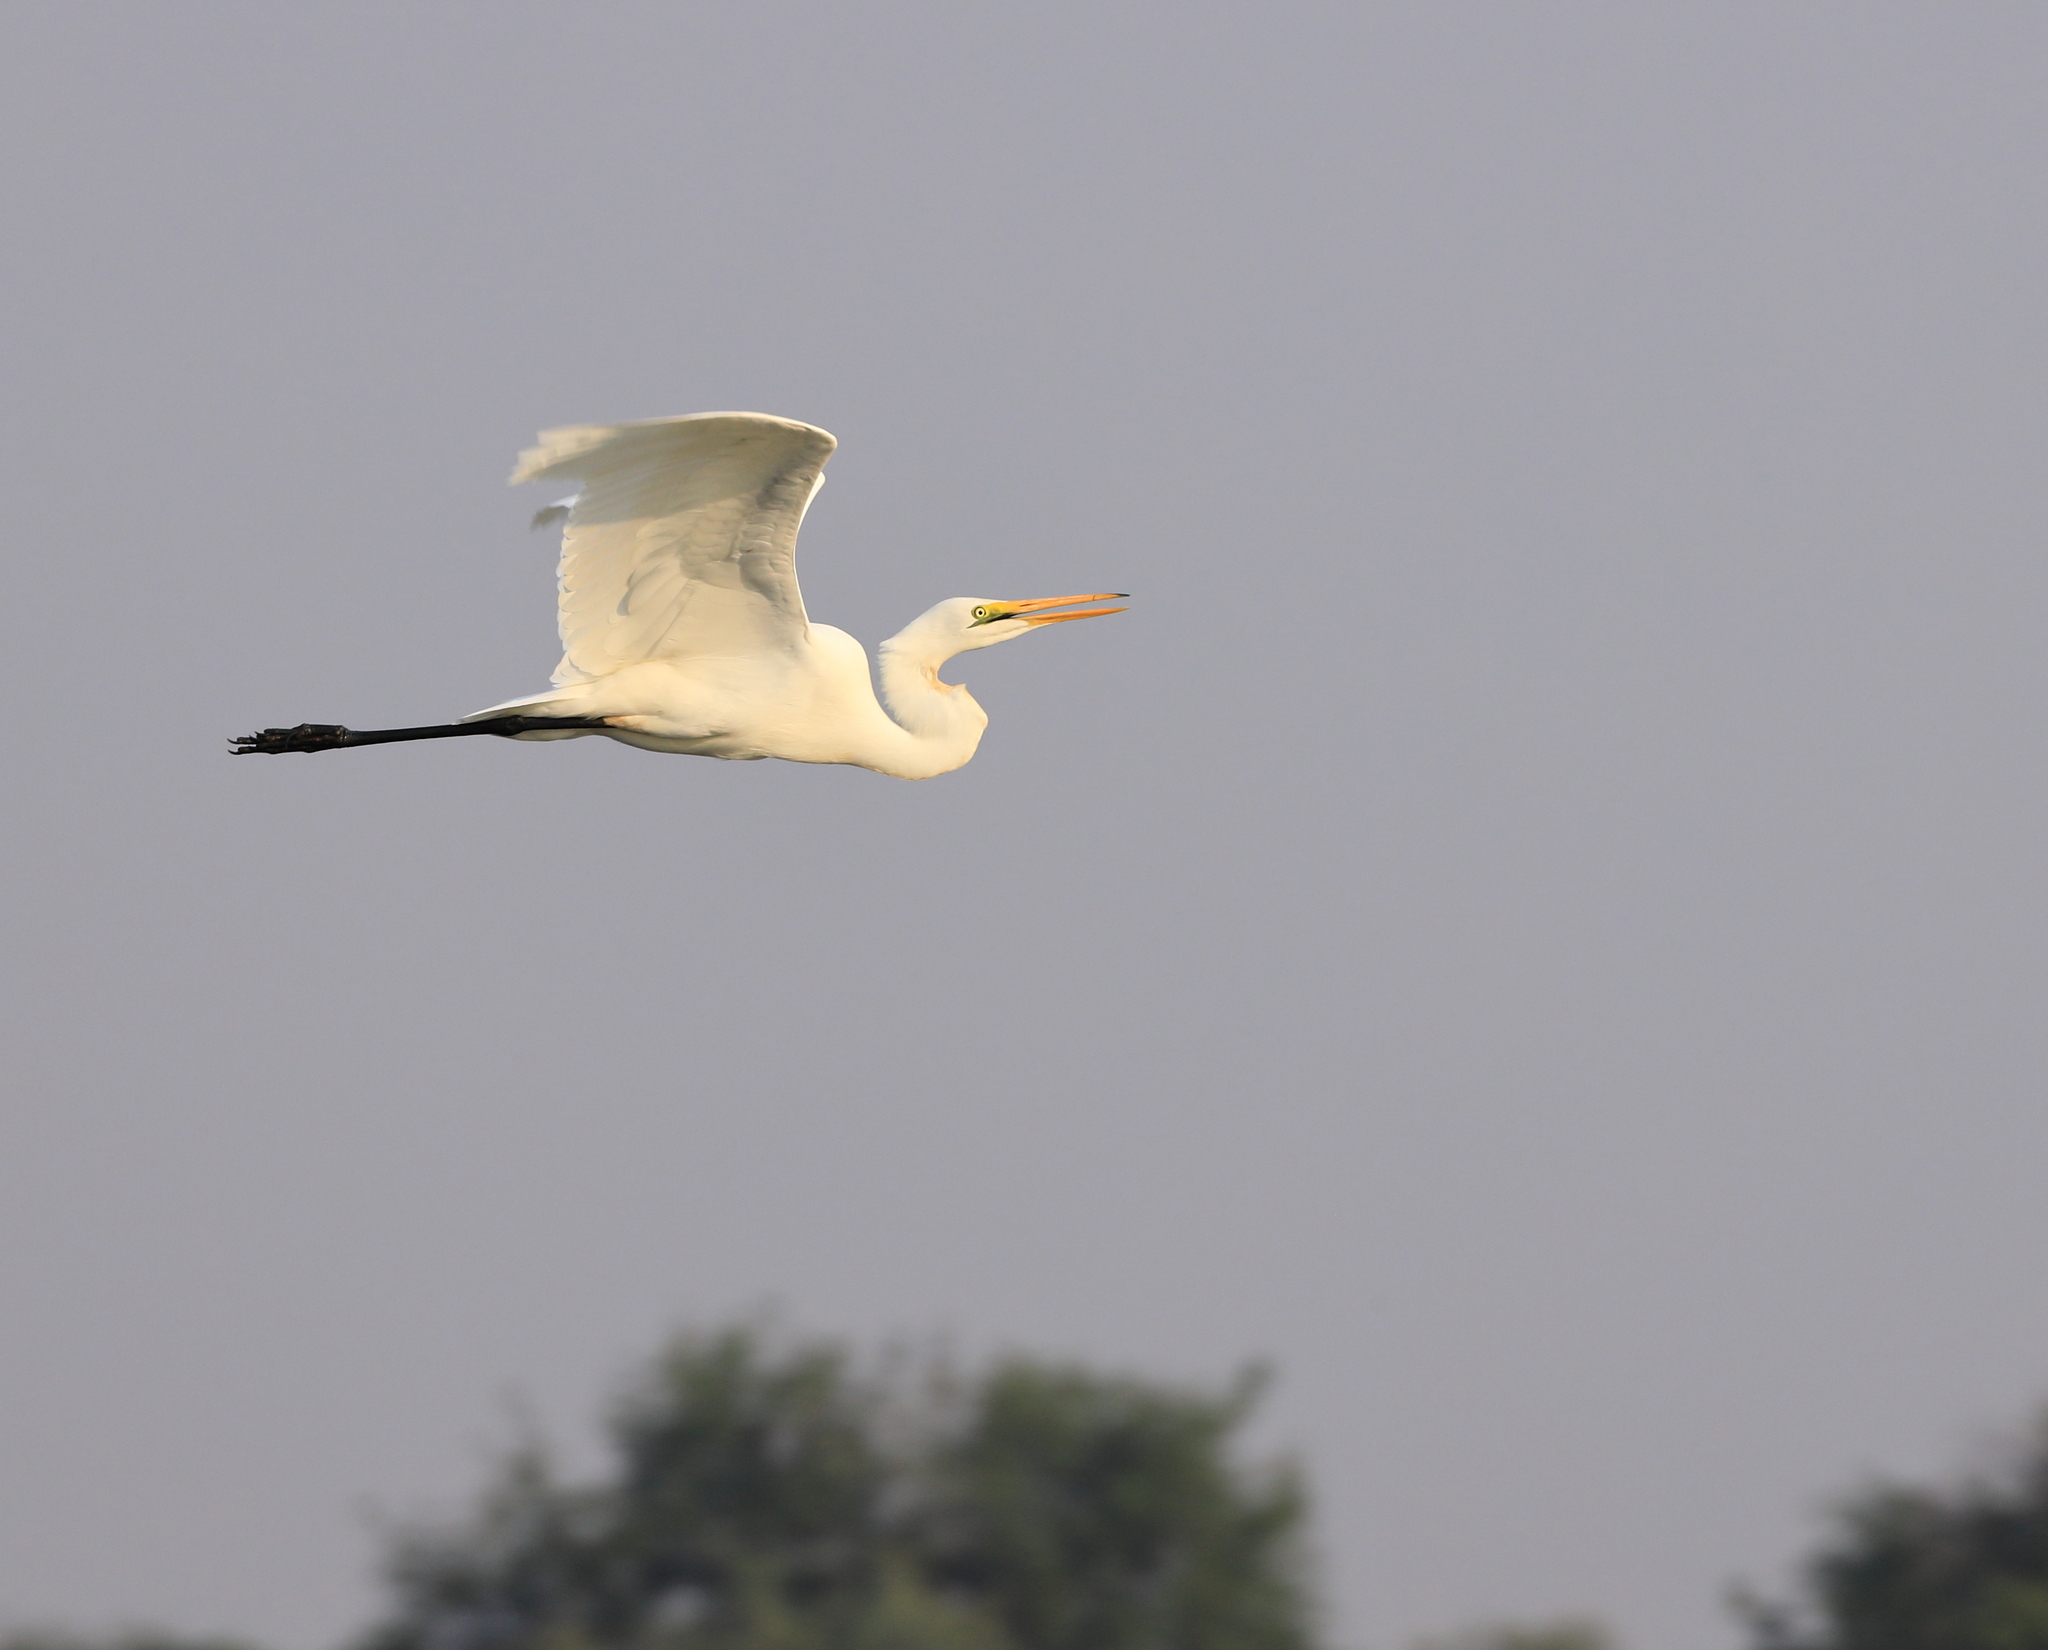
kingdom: Animalia
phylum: Chordata
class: Aves
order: Pelecaniformes
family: Ardeidae
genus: Ardea
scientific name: Ardea alba
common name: Great egret
